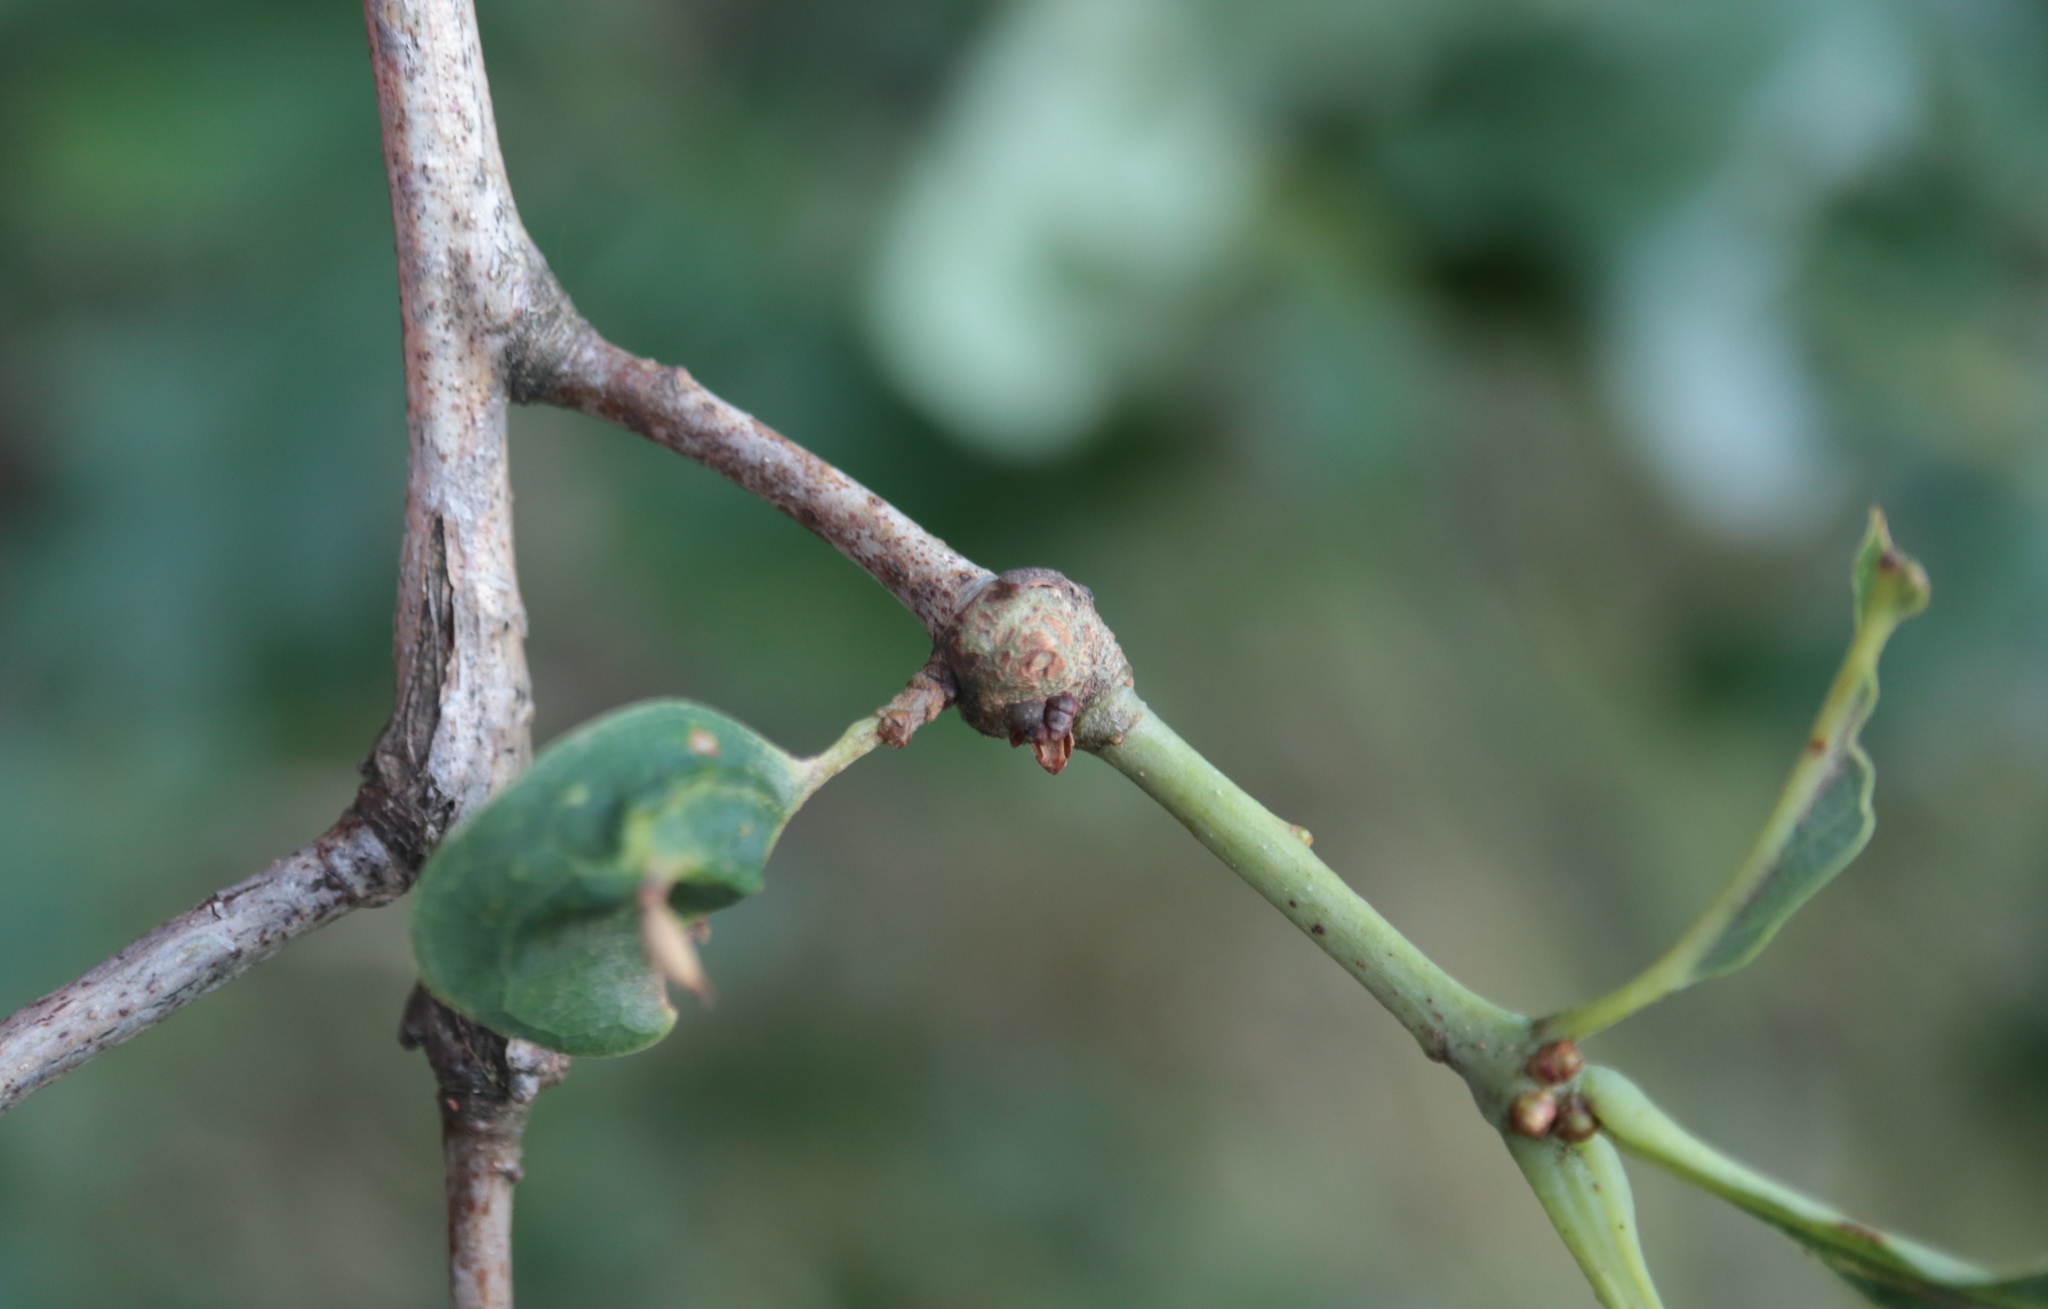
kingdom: Animalia
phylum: Arthropoda
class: Insecta
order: Hymenoptera
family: Cynipidae
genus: Loxaulus
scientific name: Loxaulus
